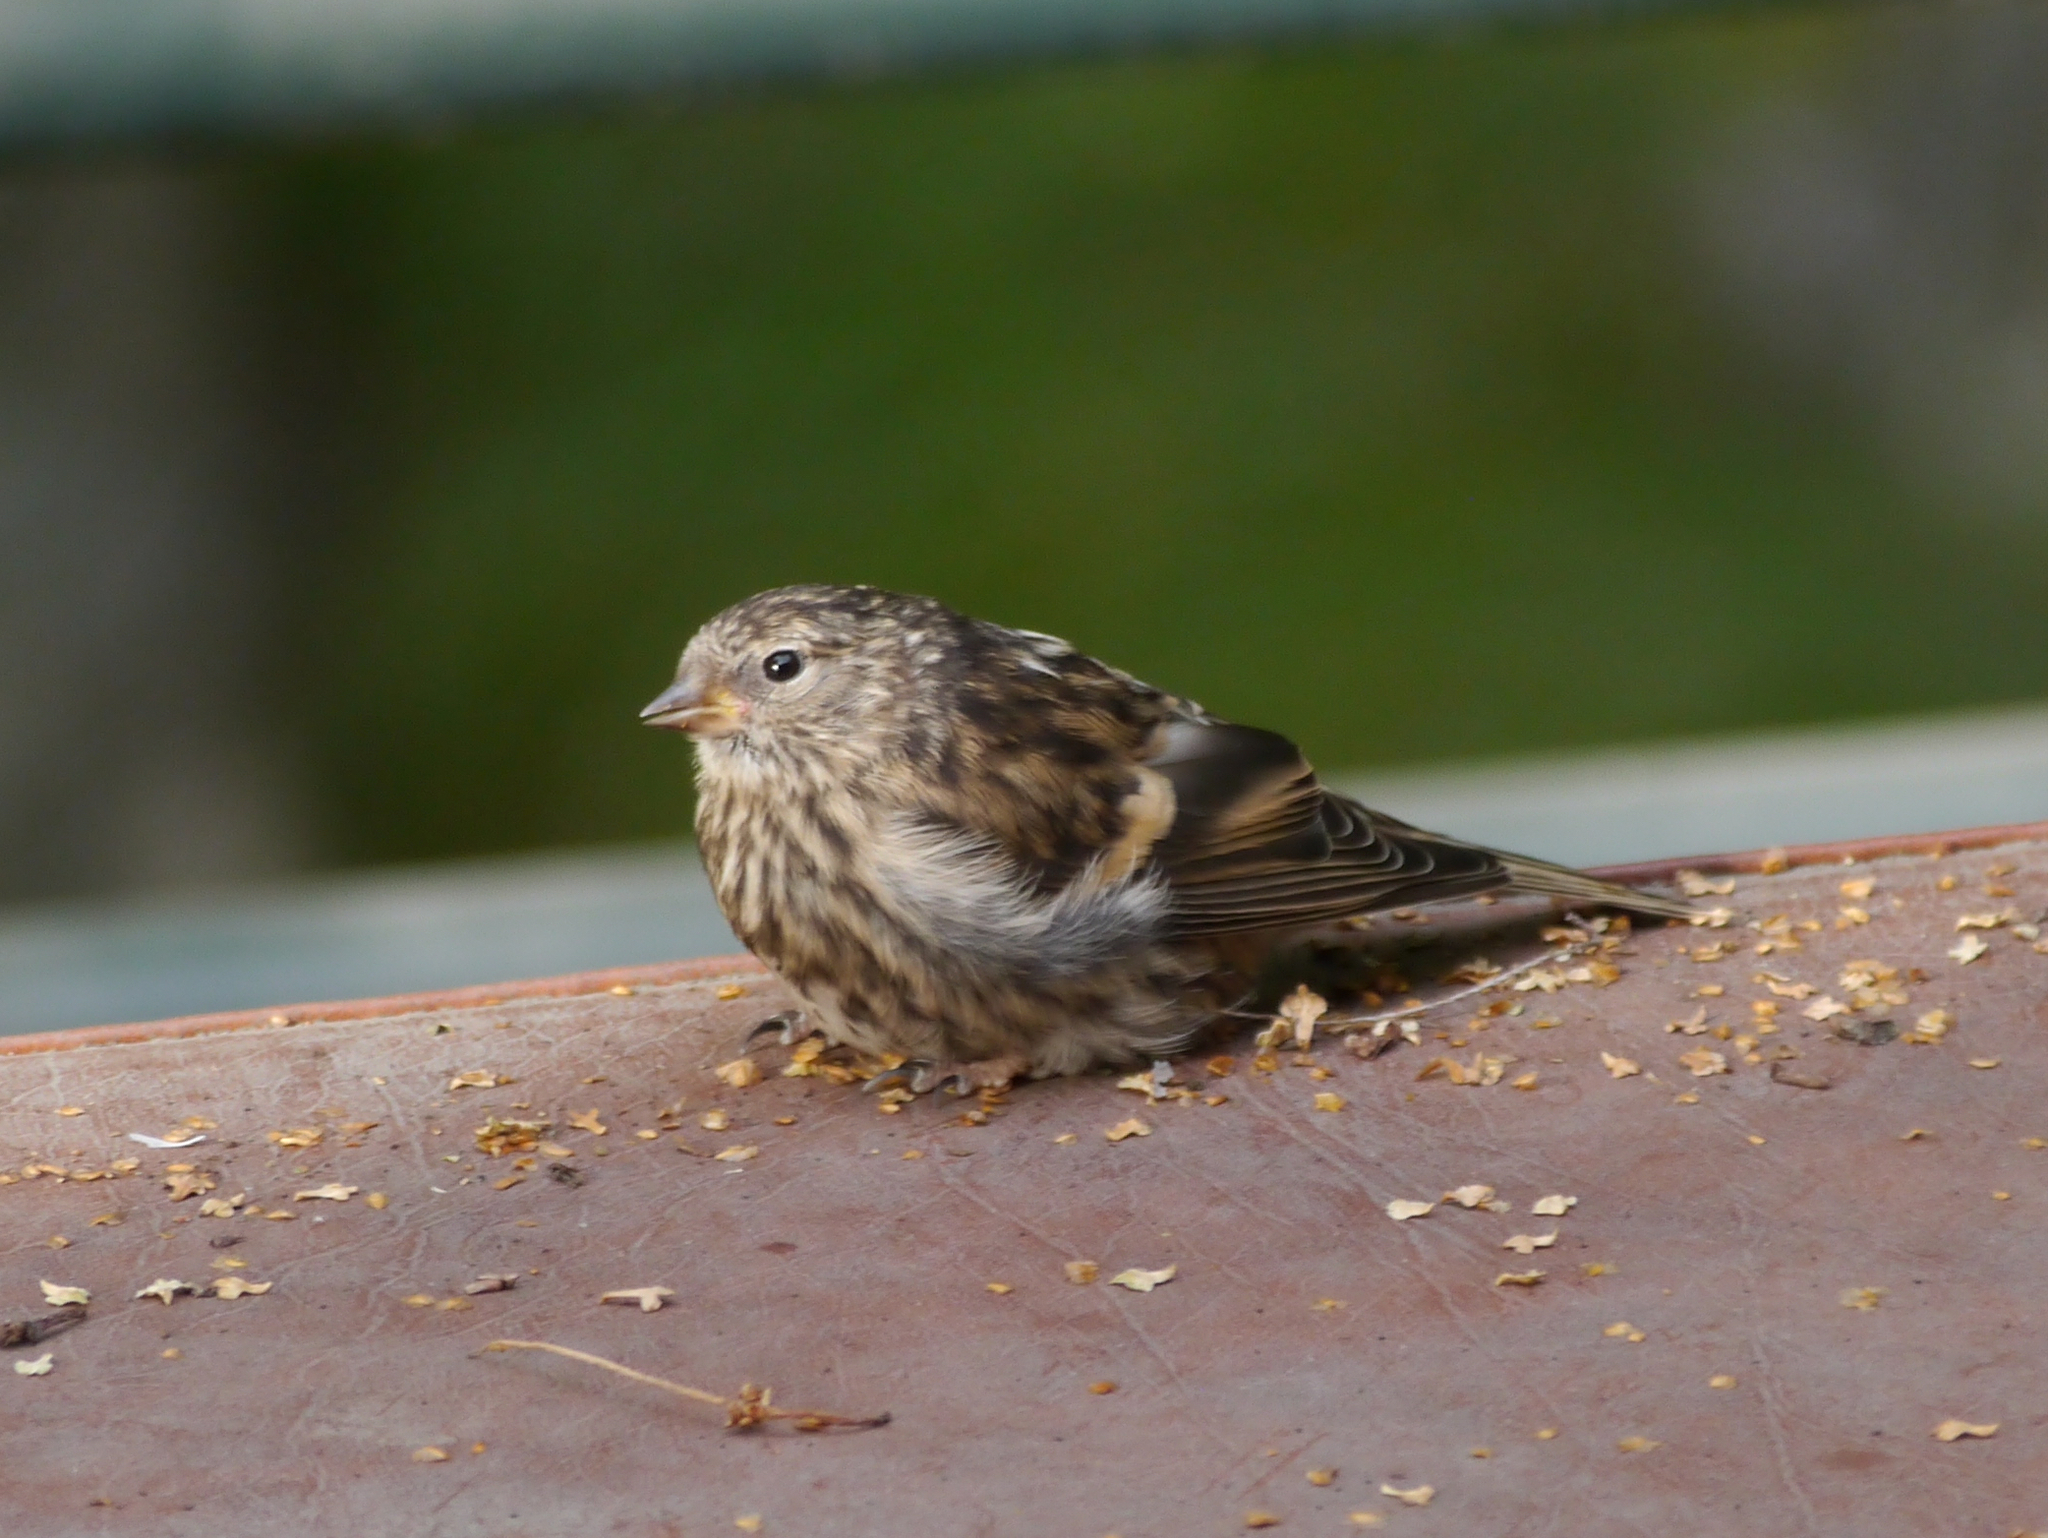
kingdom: Animalia
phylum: Chordata
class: Aves
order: Passeriformes
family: Fringillidae
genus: Spinus
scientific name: Spinus pinus
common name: Pine siskin
